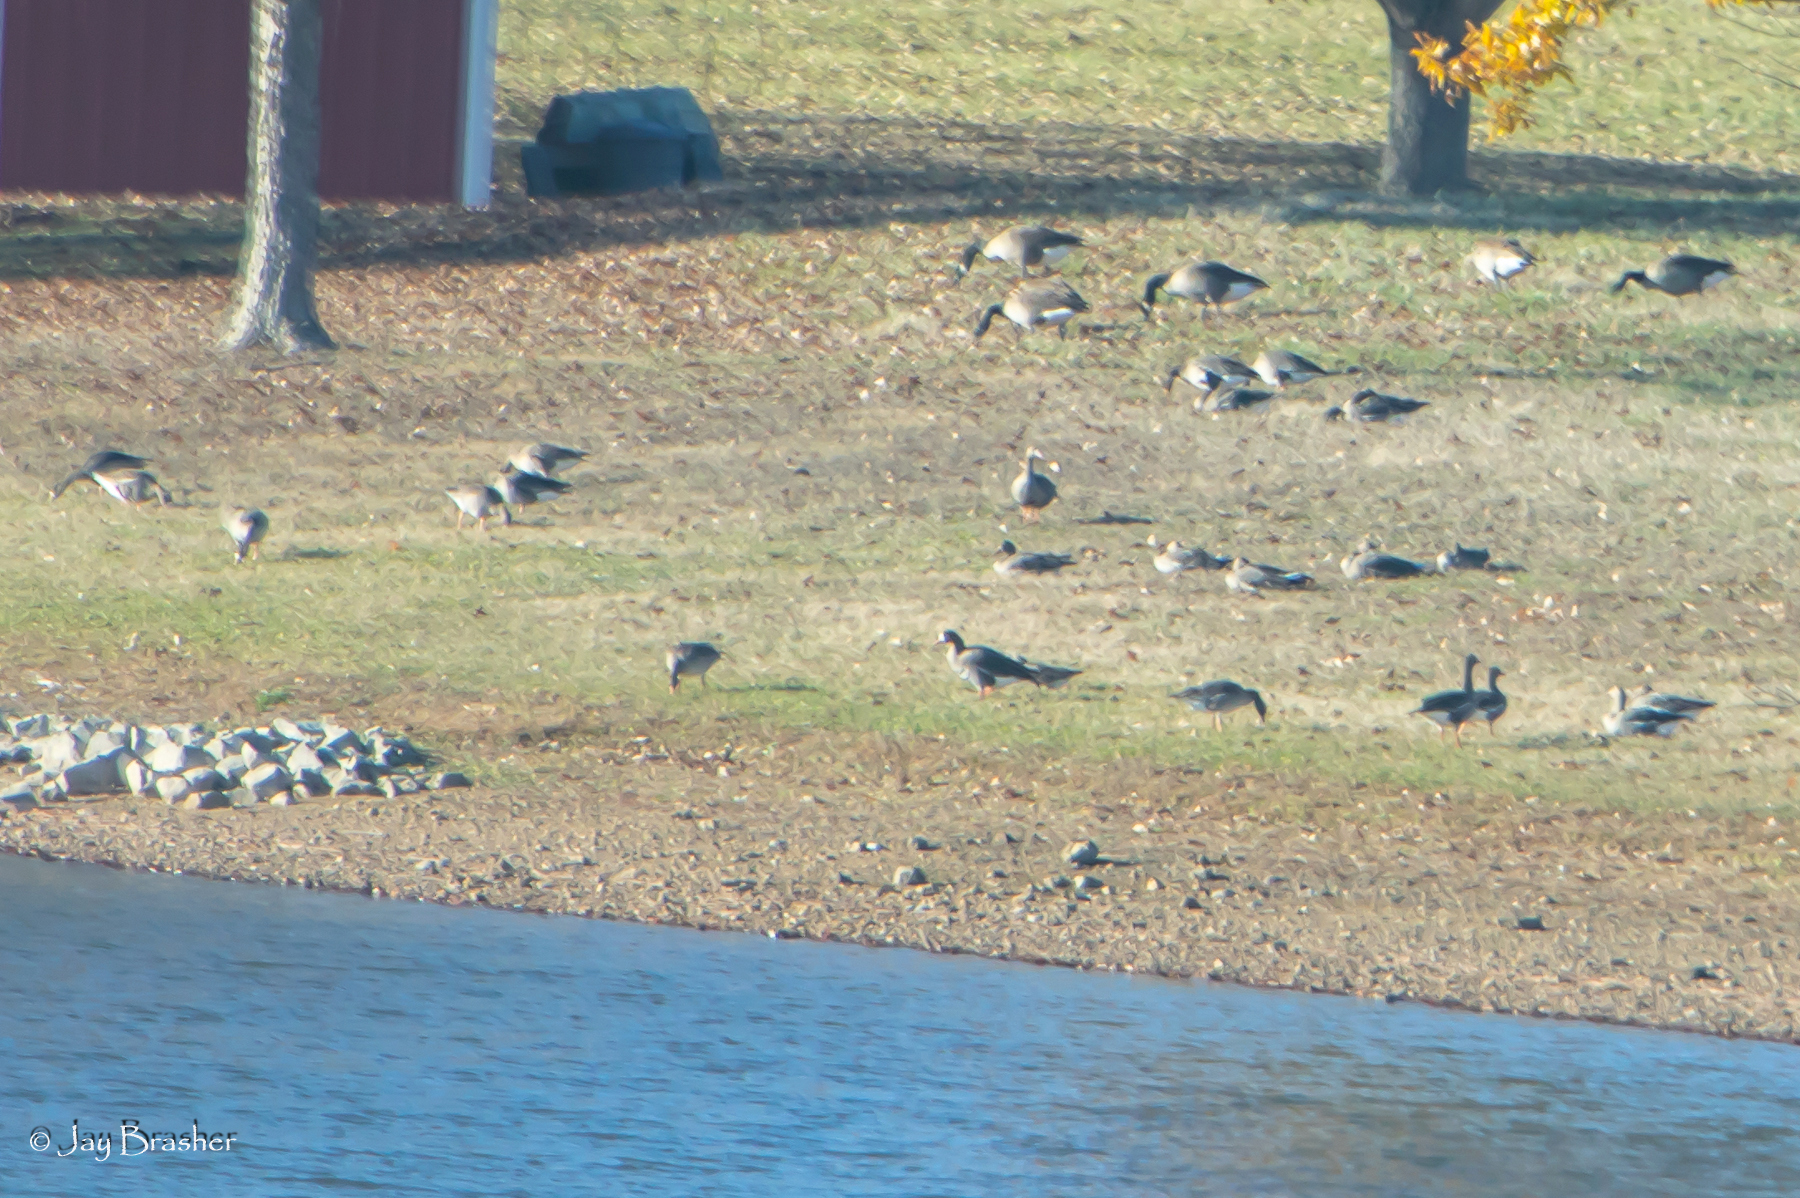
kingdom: Animalia
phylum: Chordata
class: Aves
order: Anseriformes
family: Anatidae
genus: Anser
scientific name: Anser albifrons
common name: Greater white-fronted goose
